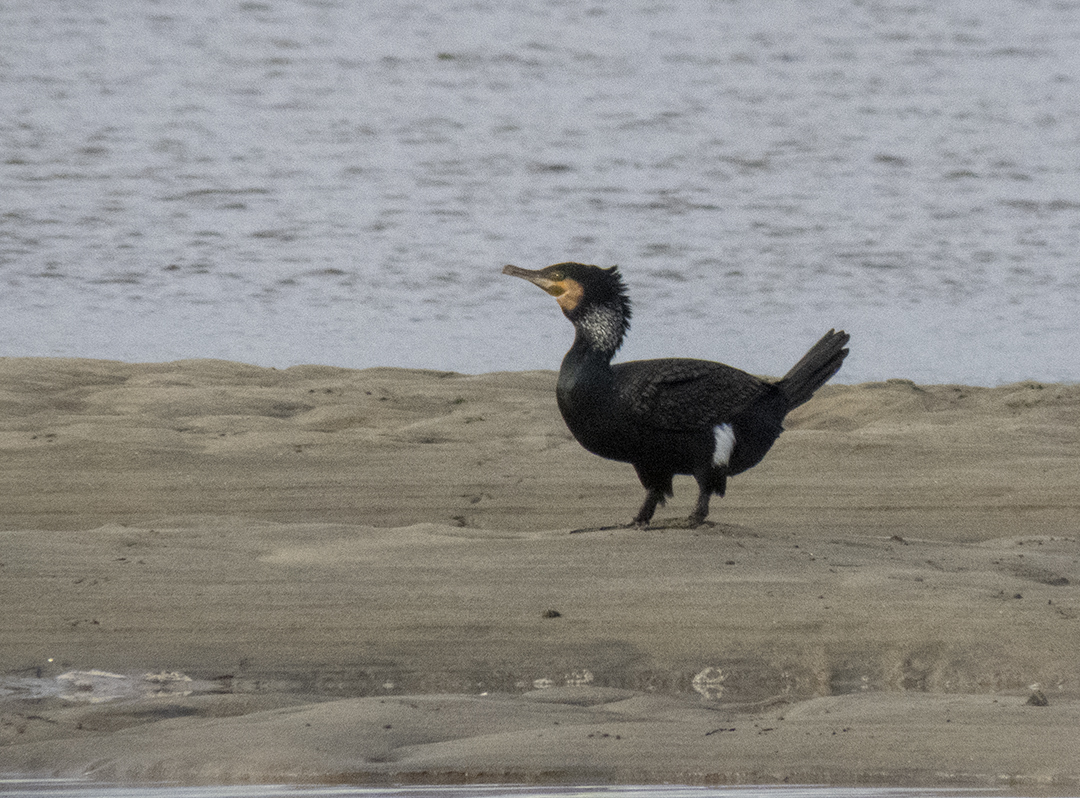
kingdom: Animalia
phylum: Chordata
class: Aves
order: Suliformes
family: Phalacrocoracidae
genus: Phalacrocorax
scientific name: Phalacrocorax carbo
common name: Great cormorant
